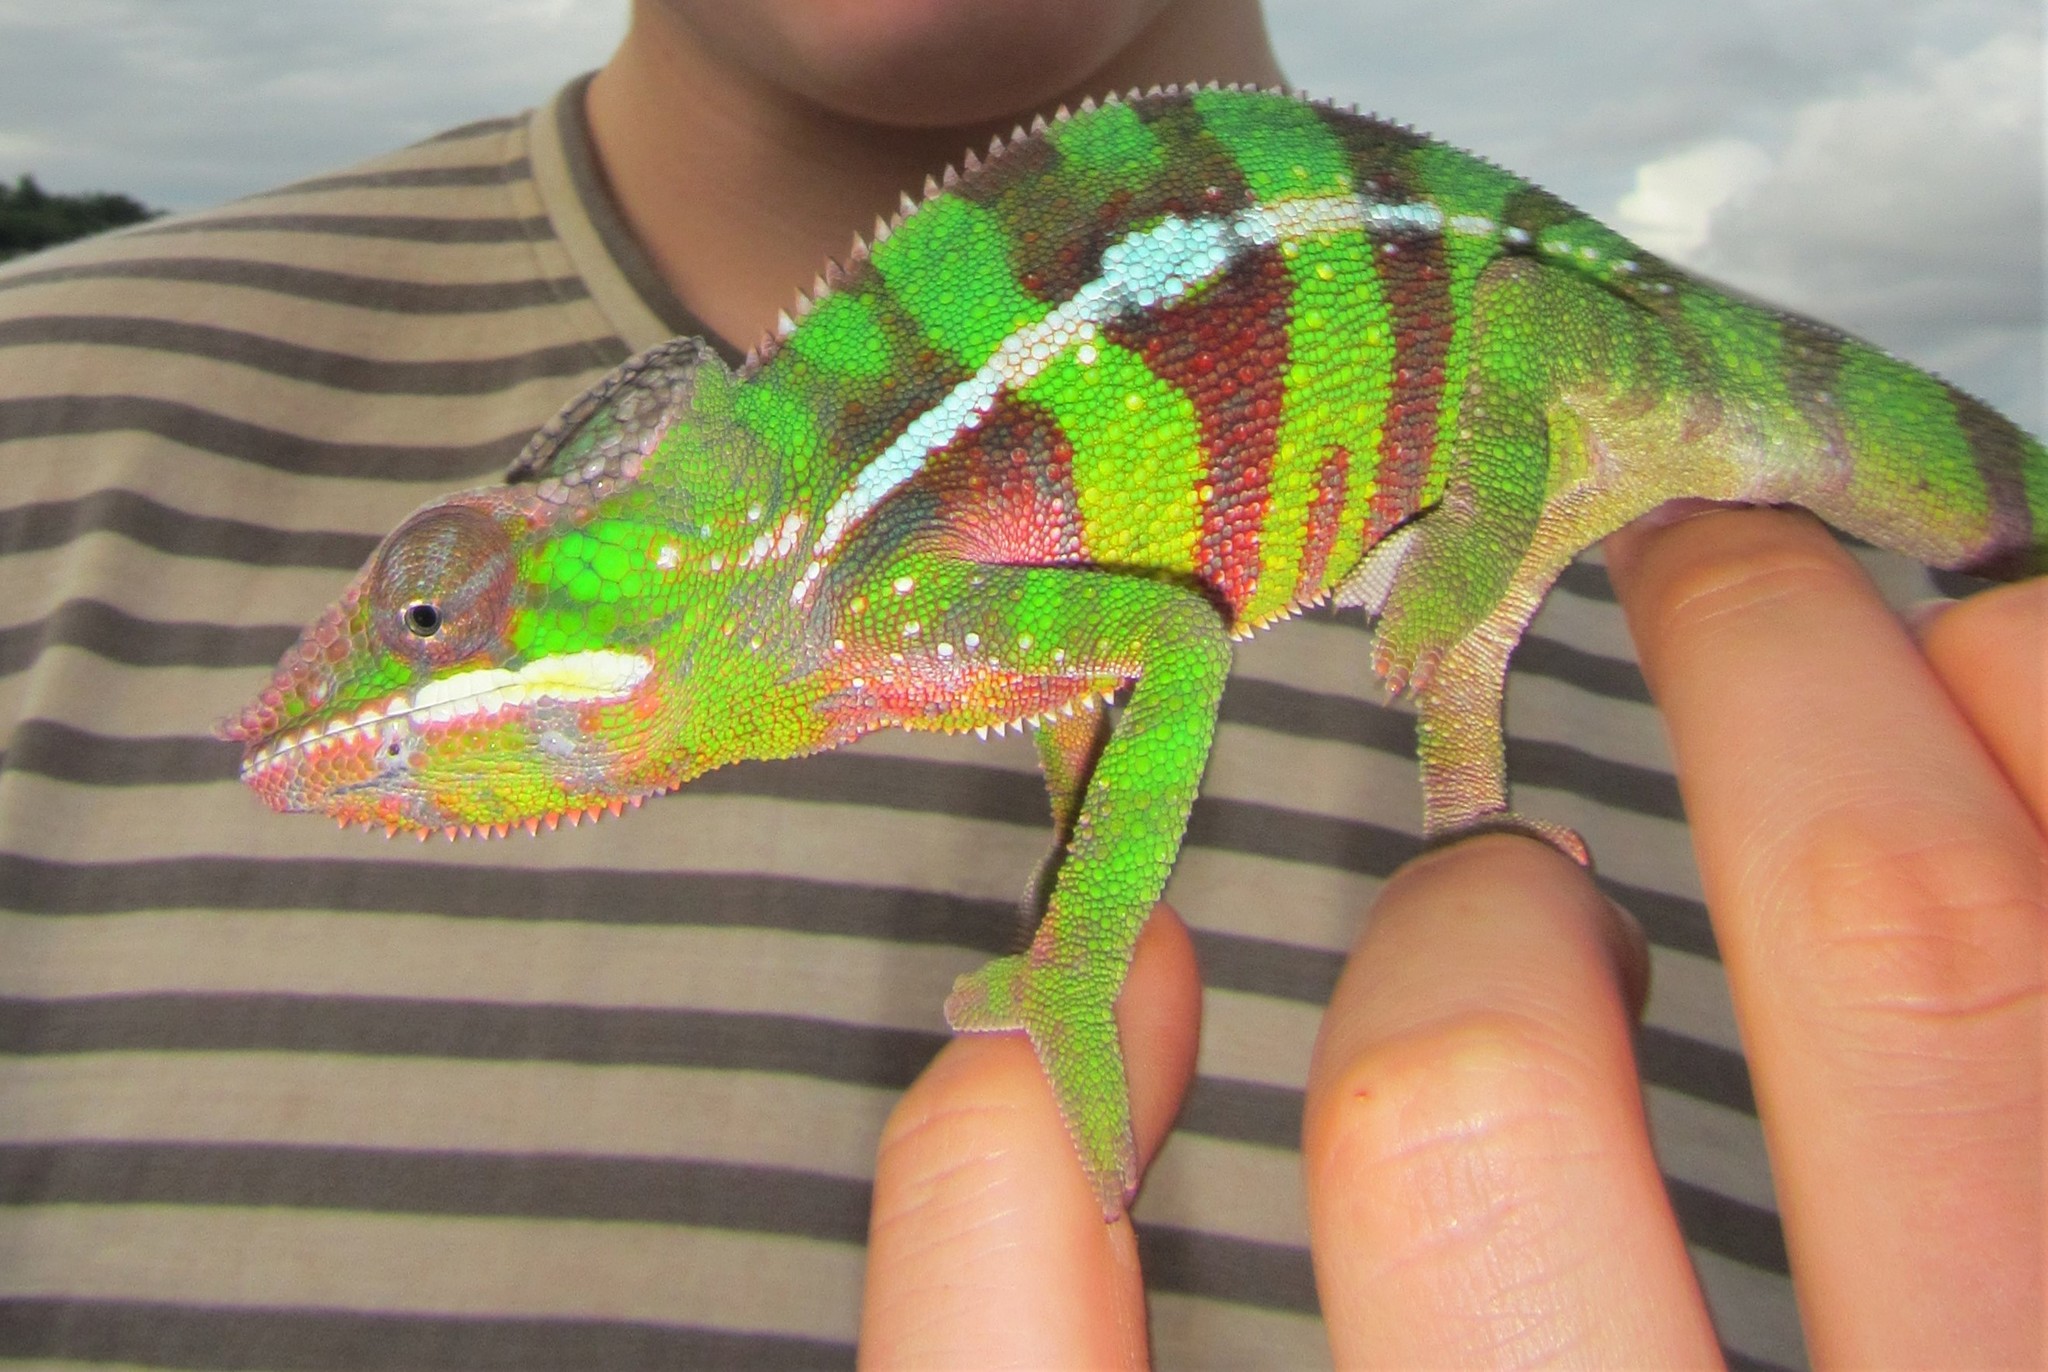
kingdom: Animalia
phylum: Chordata
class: Squamata
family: Chamaeleonidae
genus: Furcifer
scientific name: Furcifer pardalis
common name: Panther chameleon
